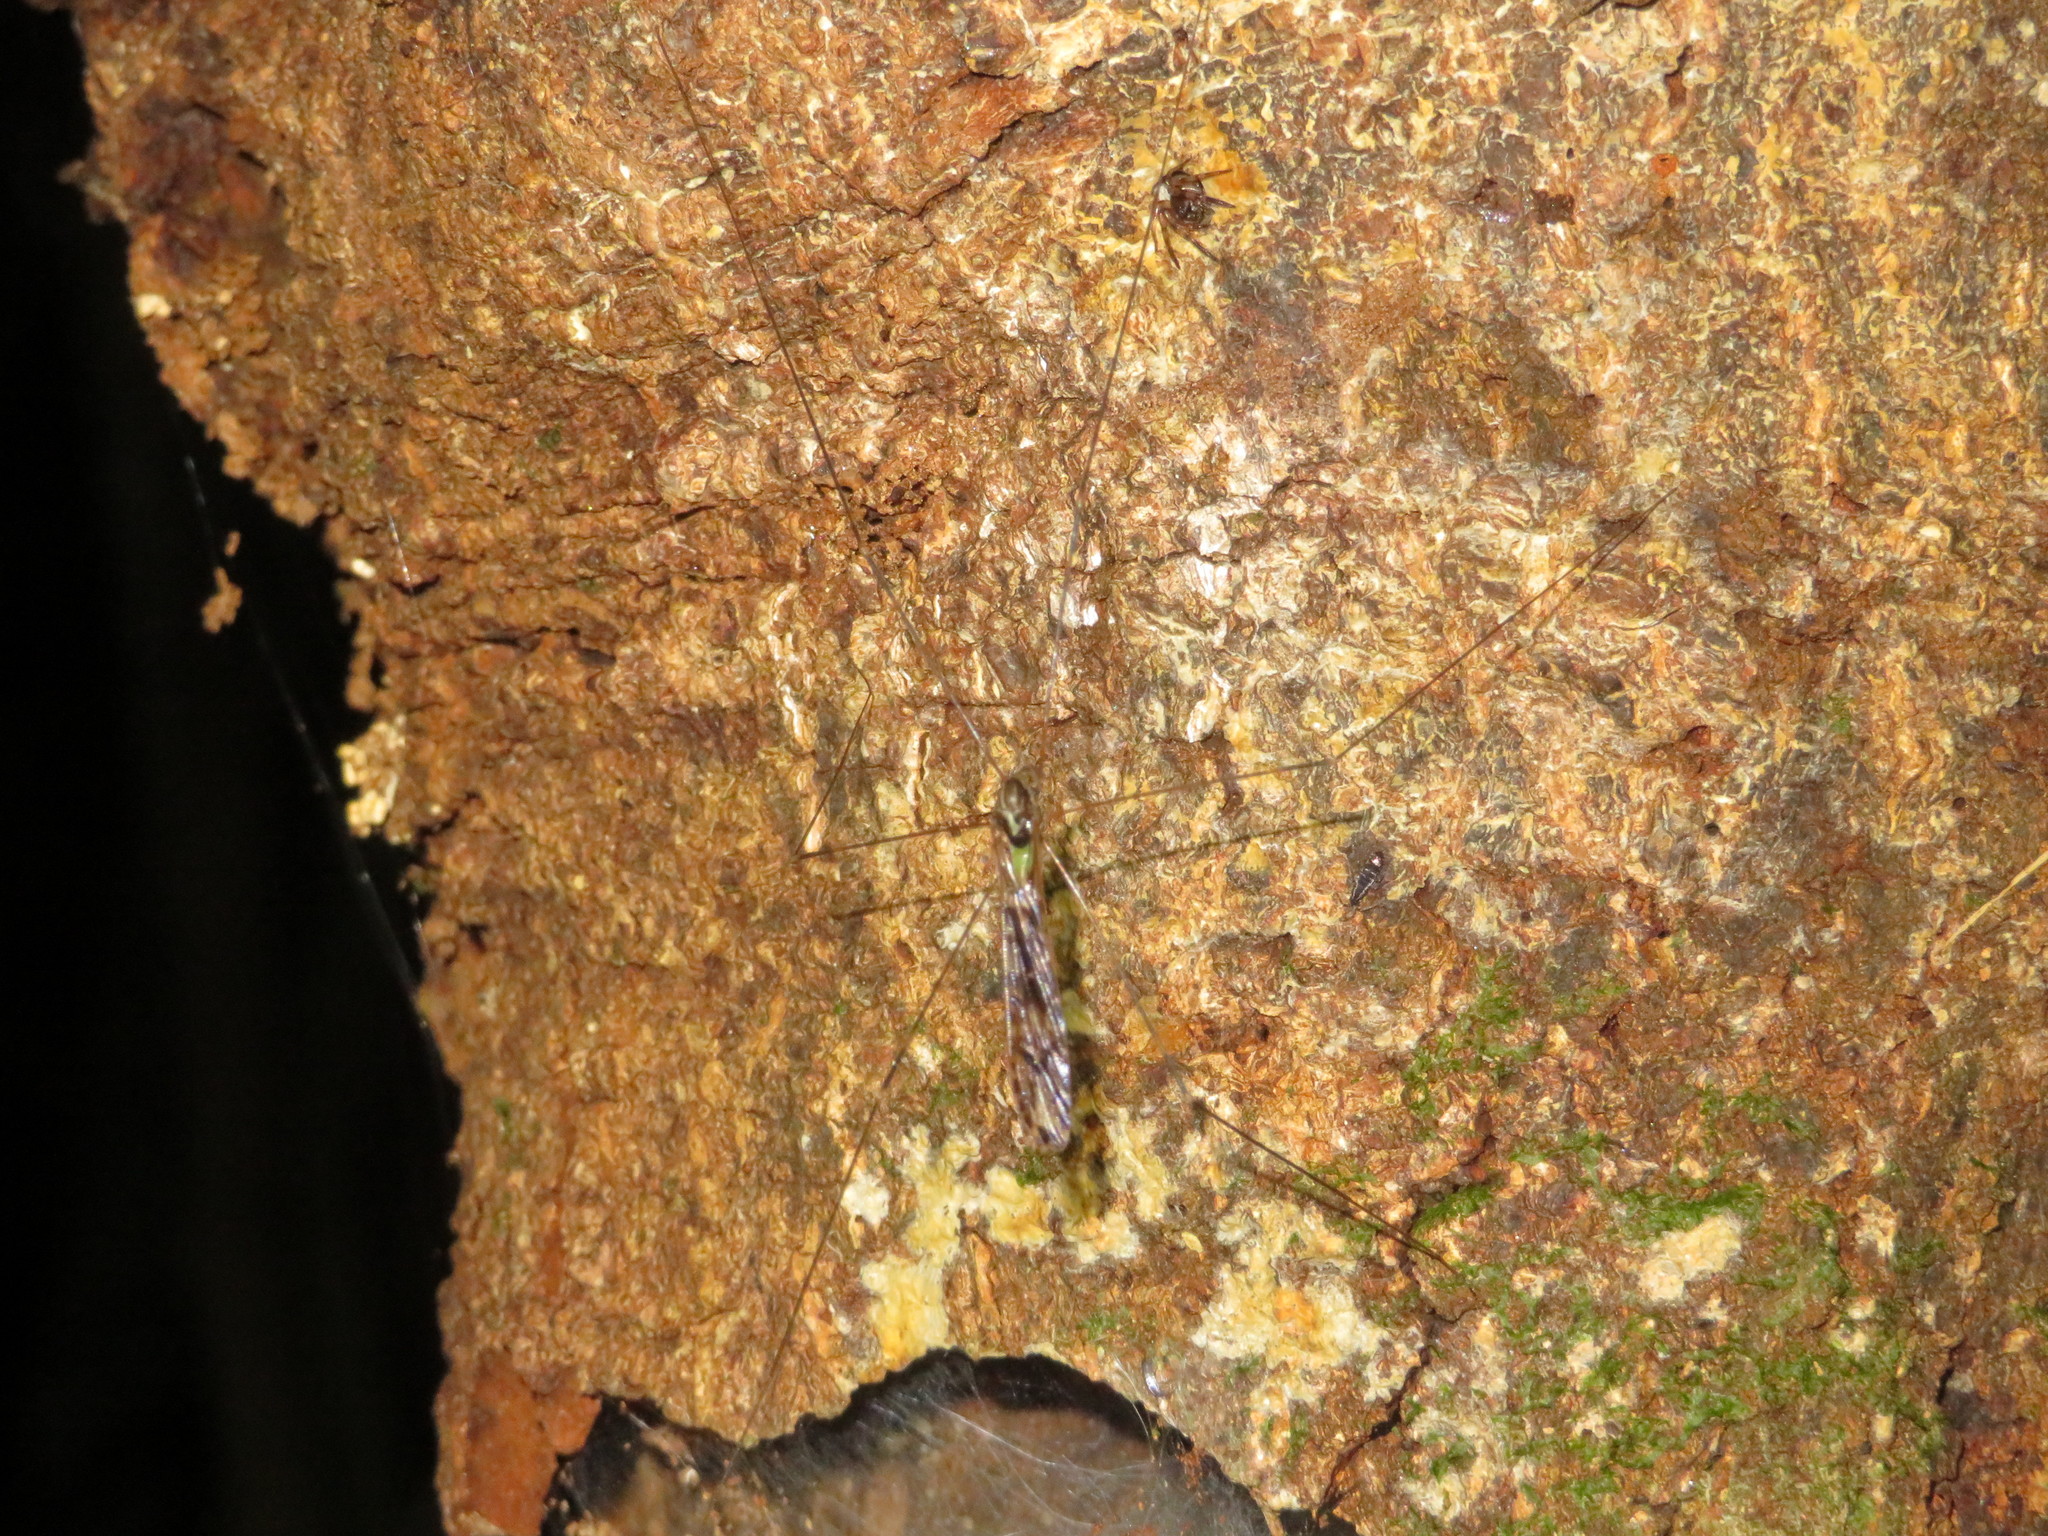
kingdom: Animalia
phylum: Arthropoda
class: Insecta
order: Diptera
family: Limoniidae
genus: Discobola
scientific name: Discobola dohrni
